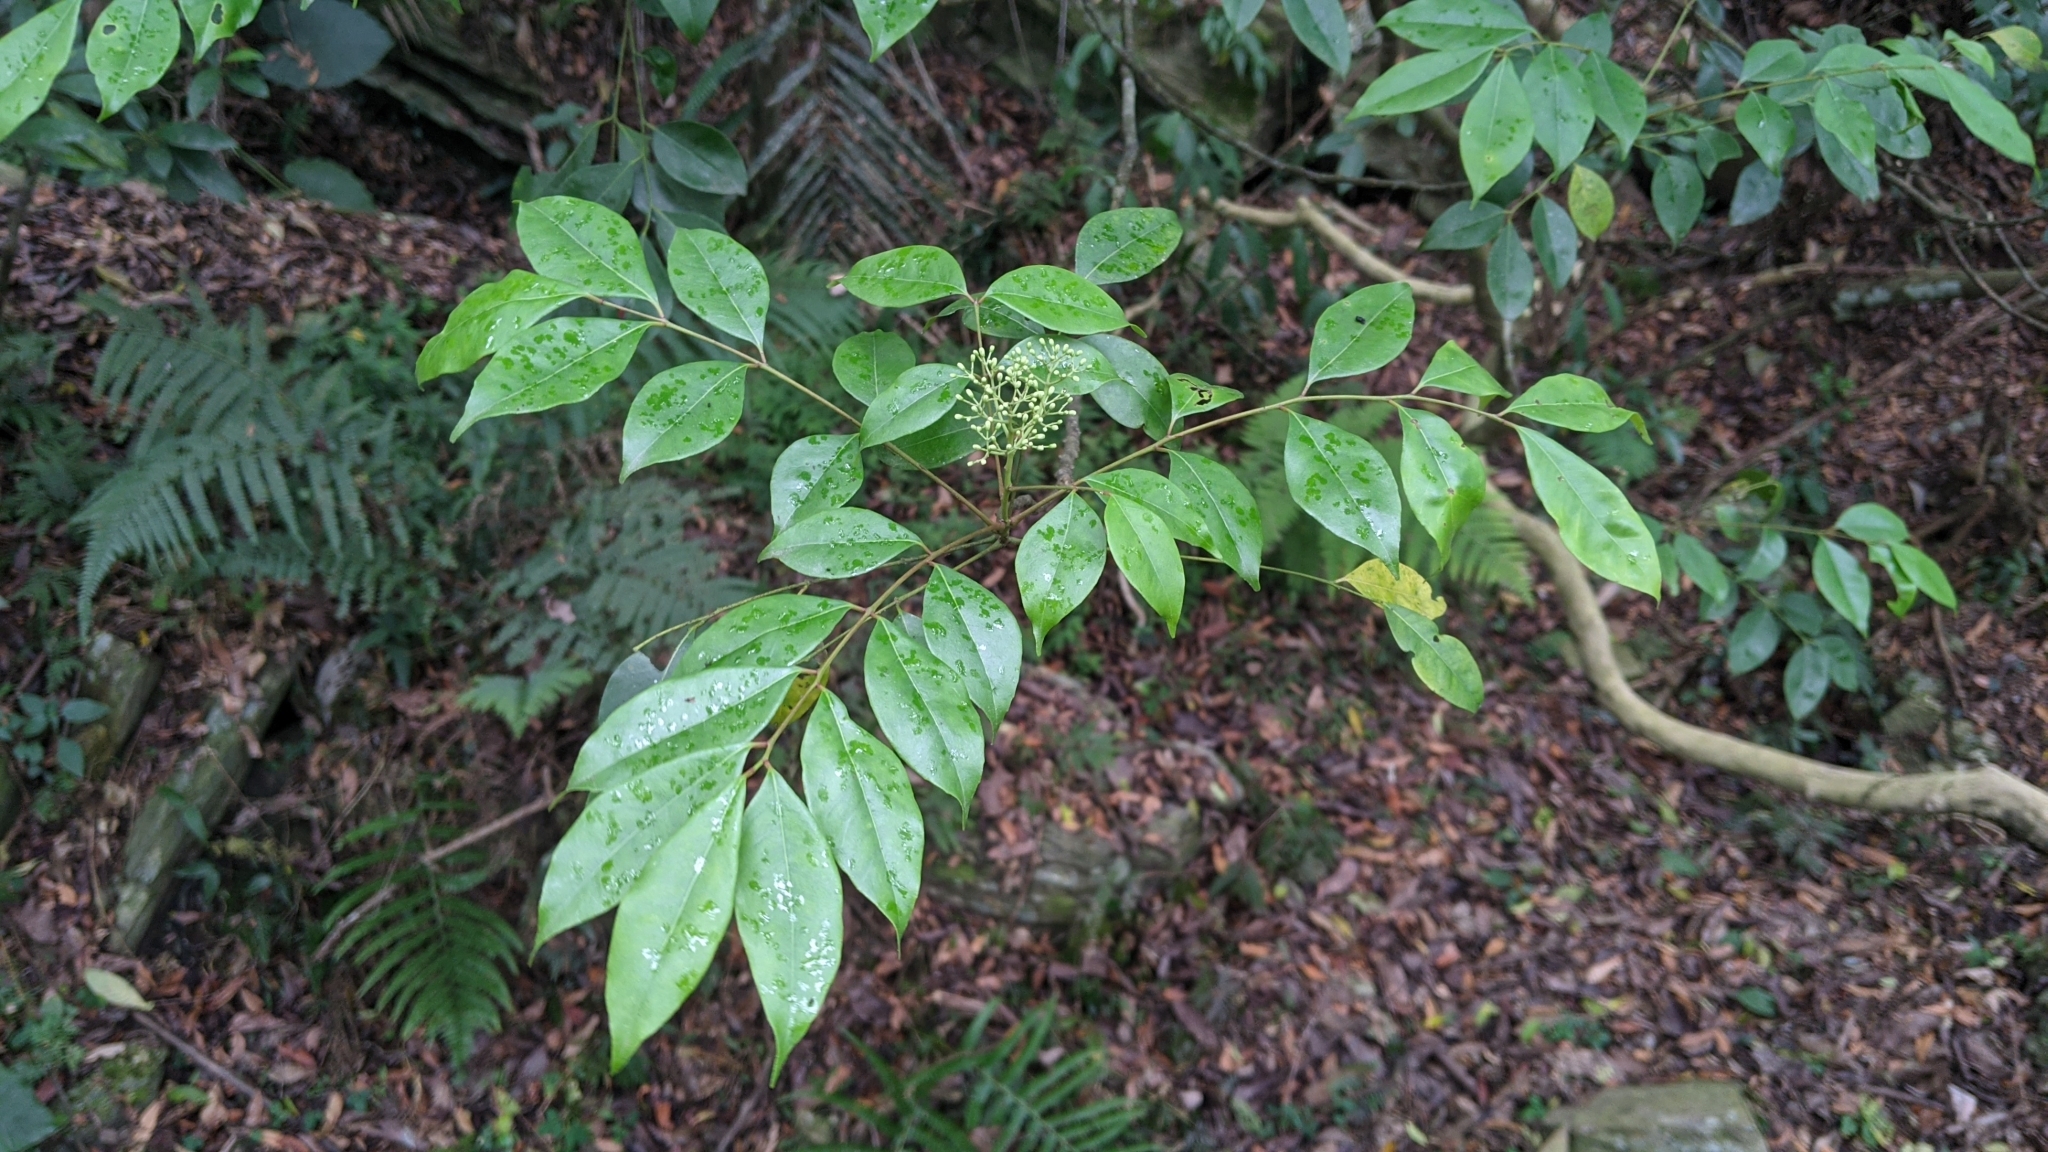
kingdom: Plantae
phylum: Tracheophyta
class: Magnoliopsida
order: Sapindales
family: Rutaceae
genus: Murraya
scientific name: Murraya euchrestifolia
